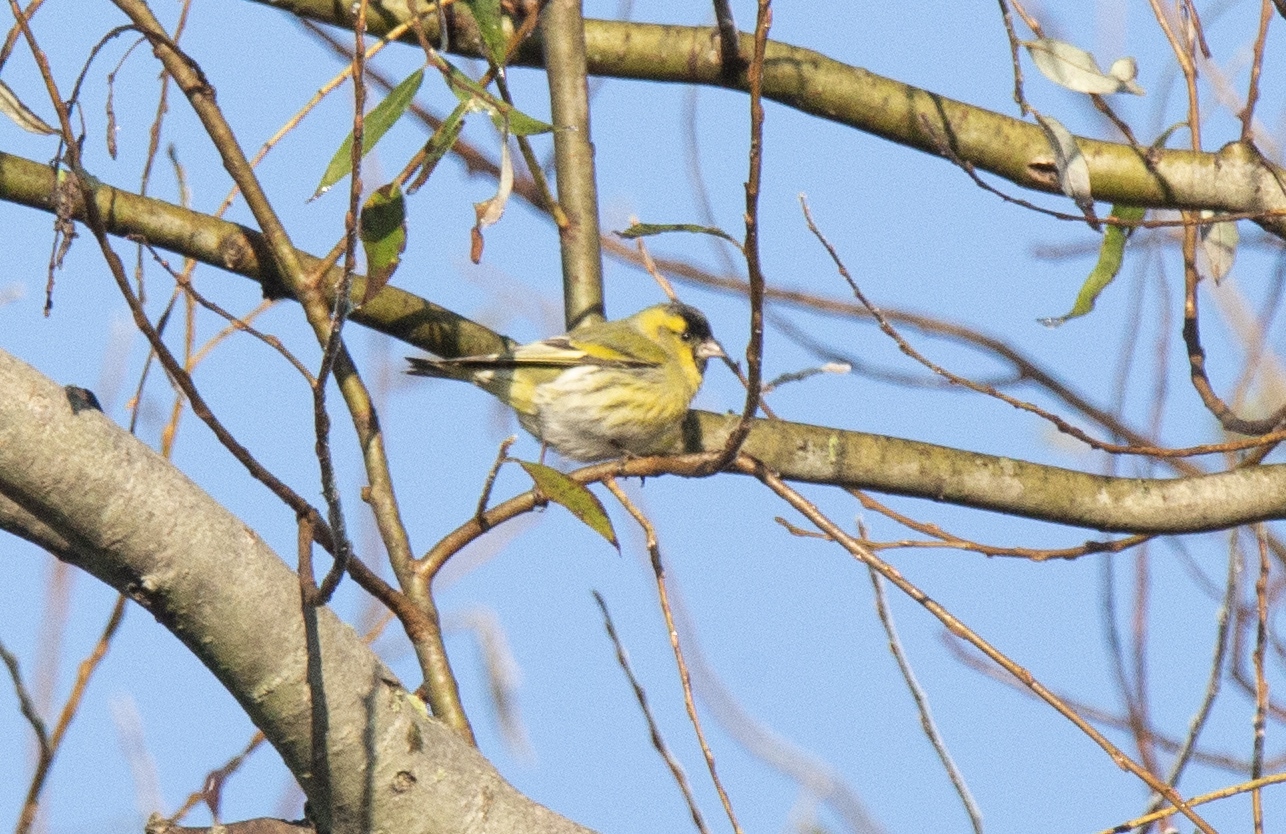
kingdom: Animalia
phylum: Chordata
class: Aves
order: Passeriformes
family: Fringillidae
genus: Spinus
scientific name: Spinus spinus
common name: Eurasian siskin
